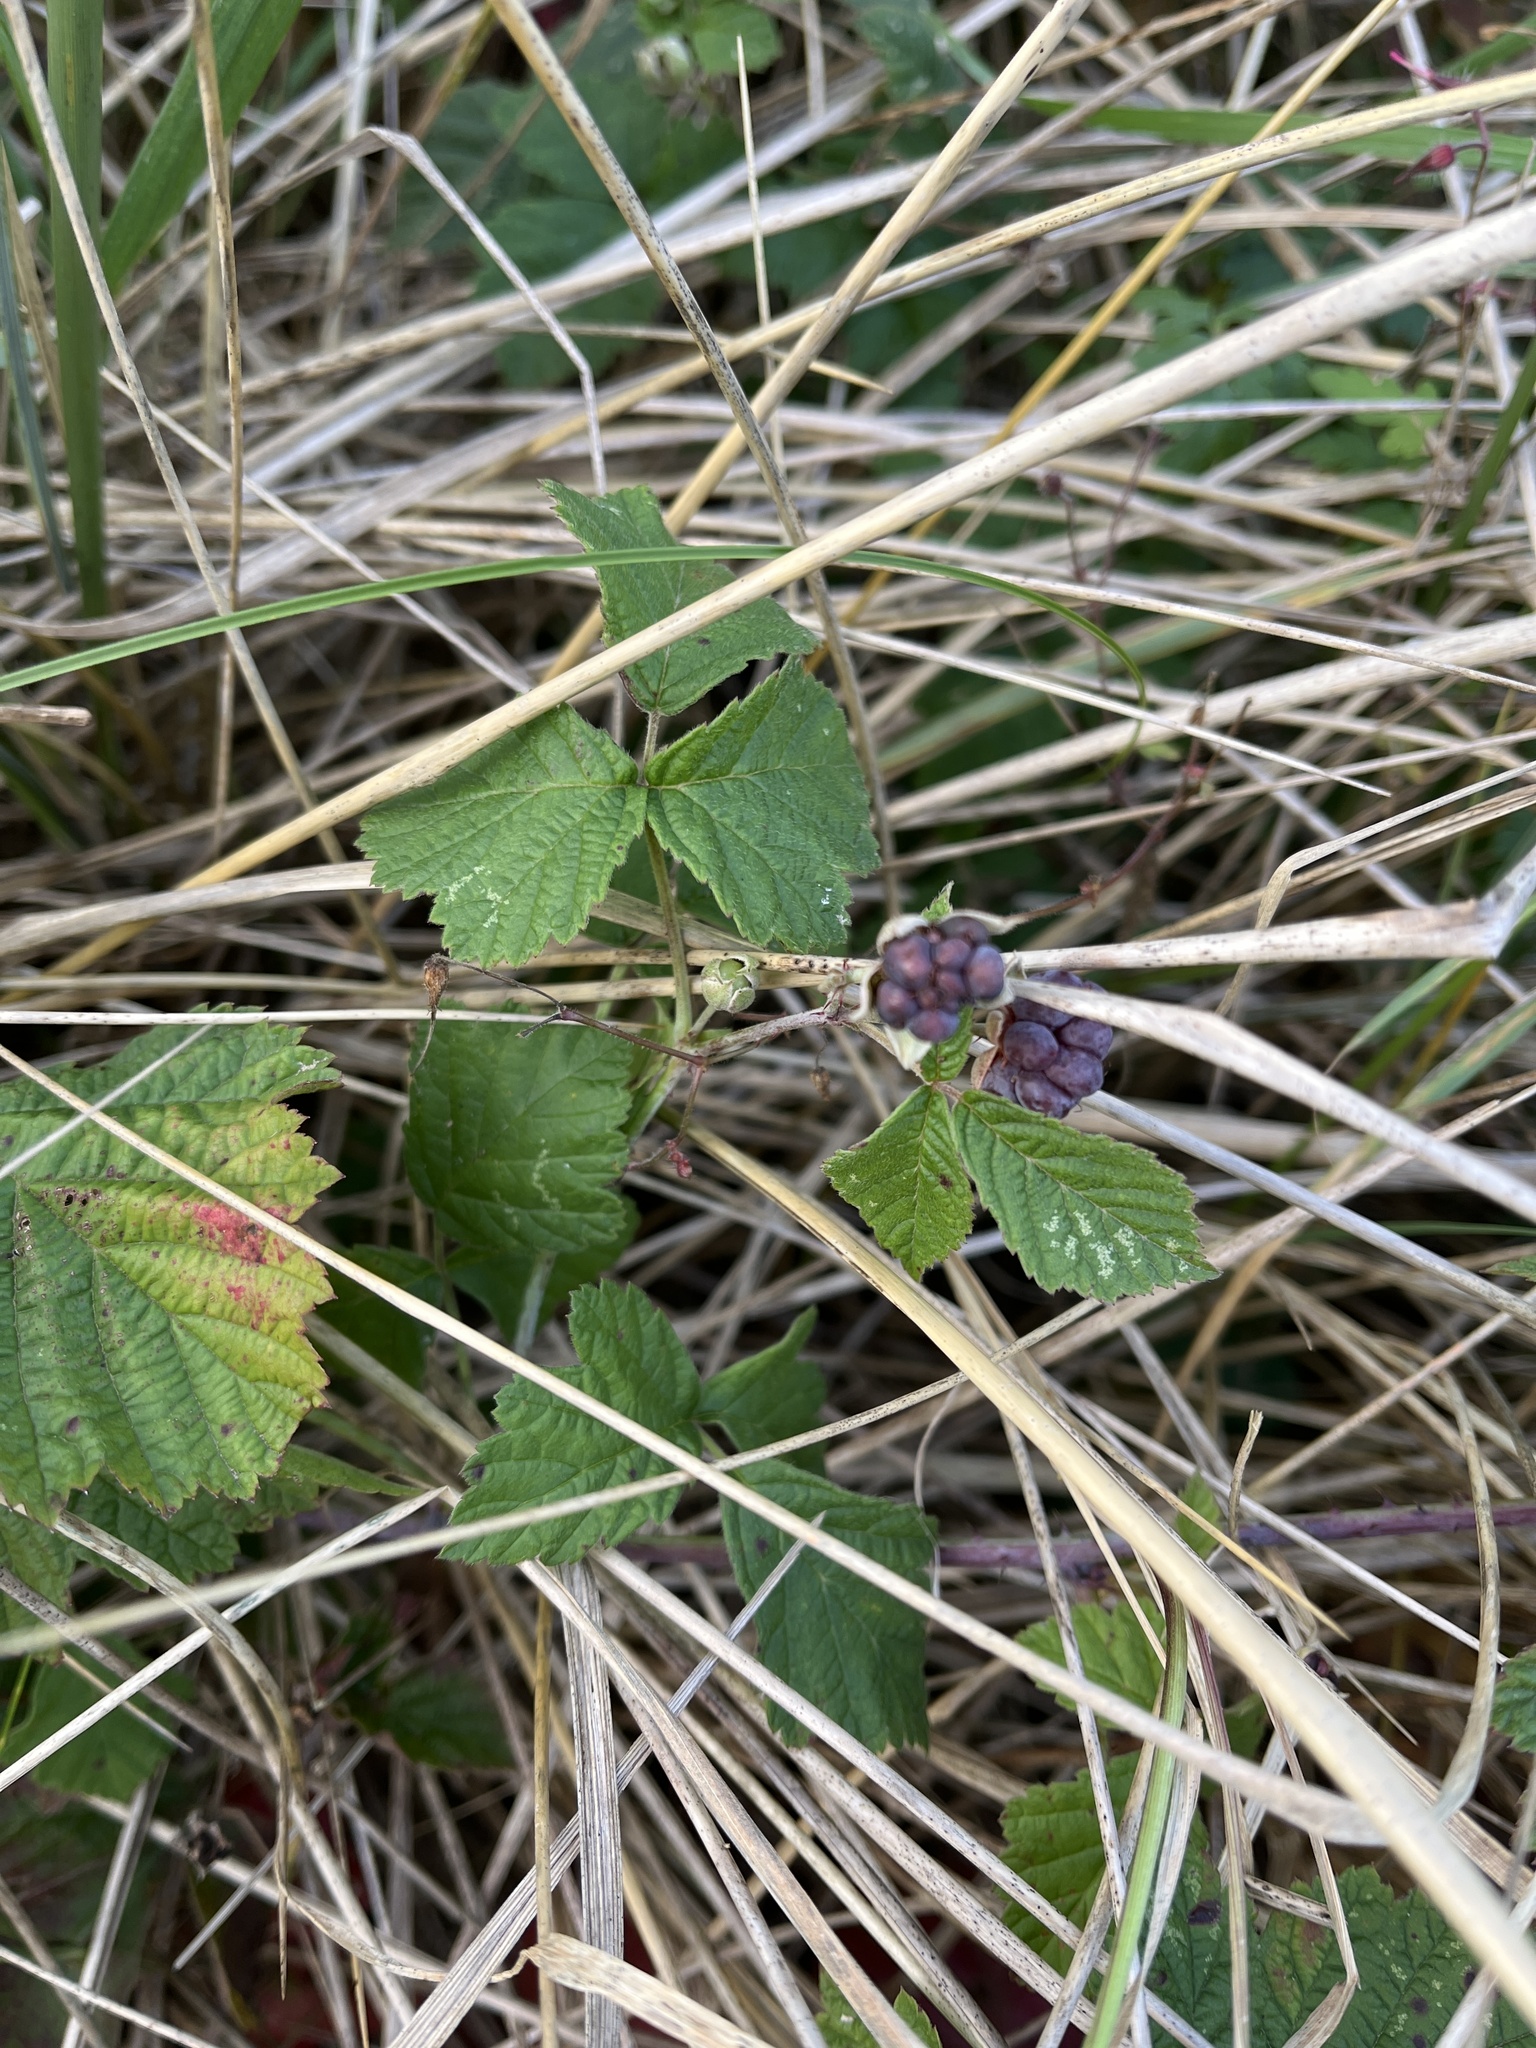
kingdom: Plantae
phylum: Tracheophyta
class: Magnoliopsida
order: Rosales
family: Rosaceae
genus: Rubus
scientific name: Rubus caesius
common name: Dewberry
